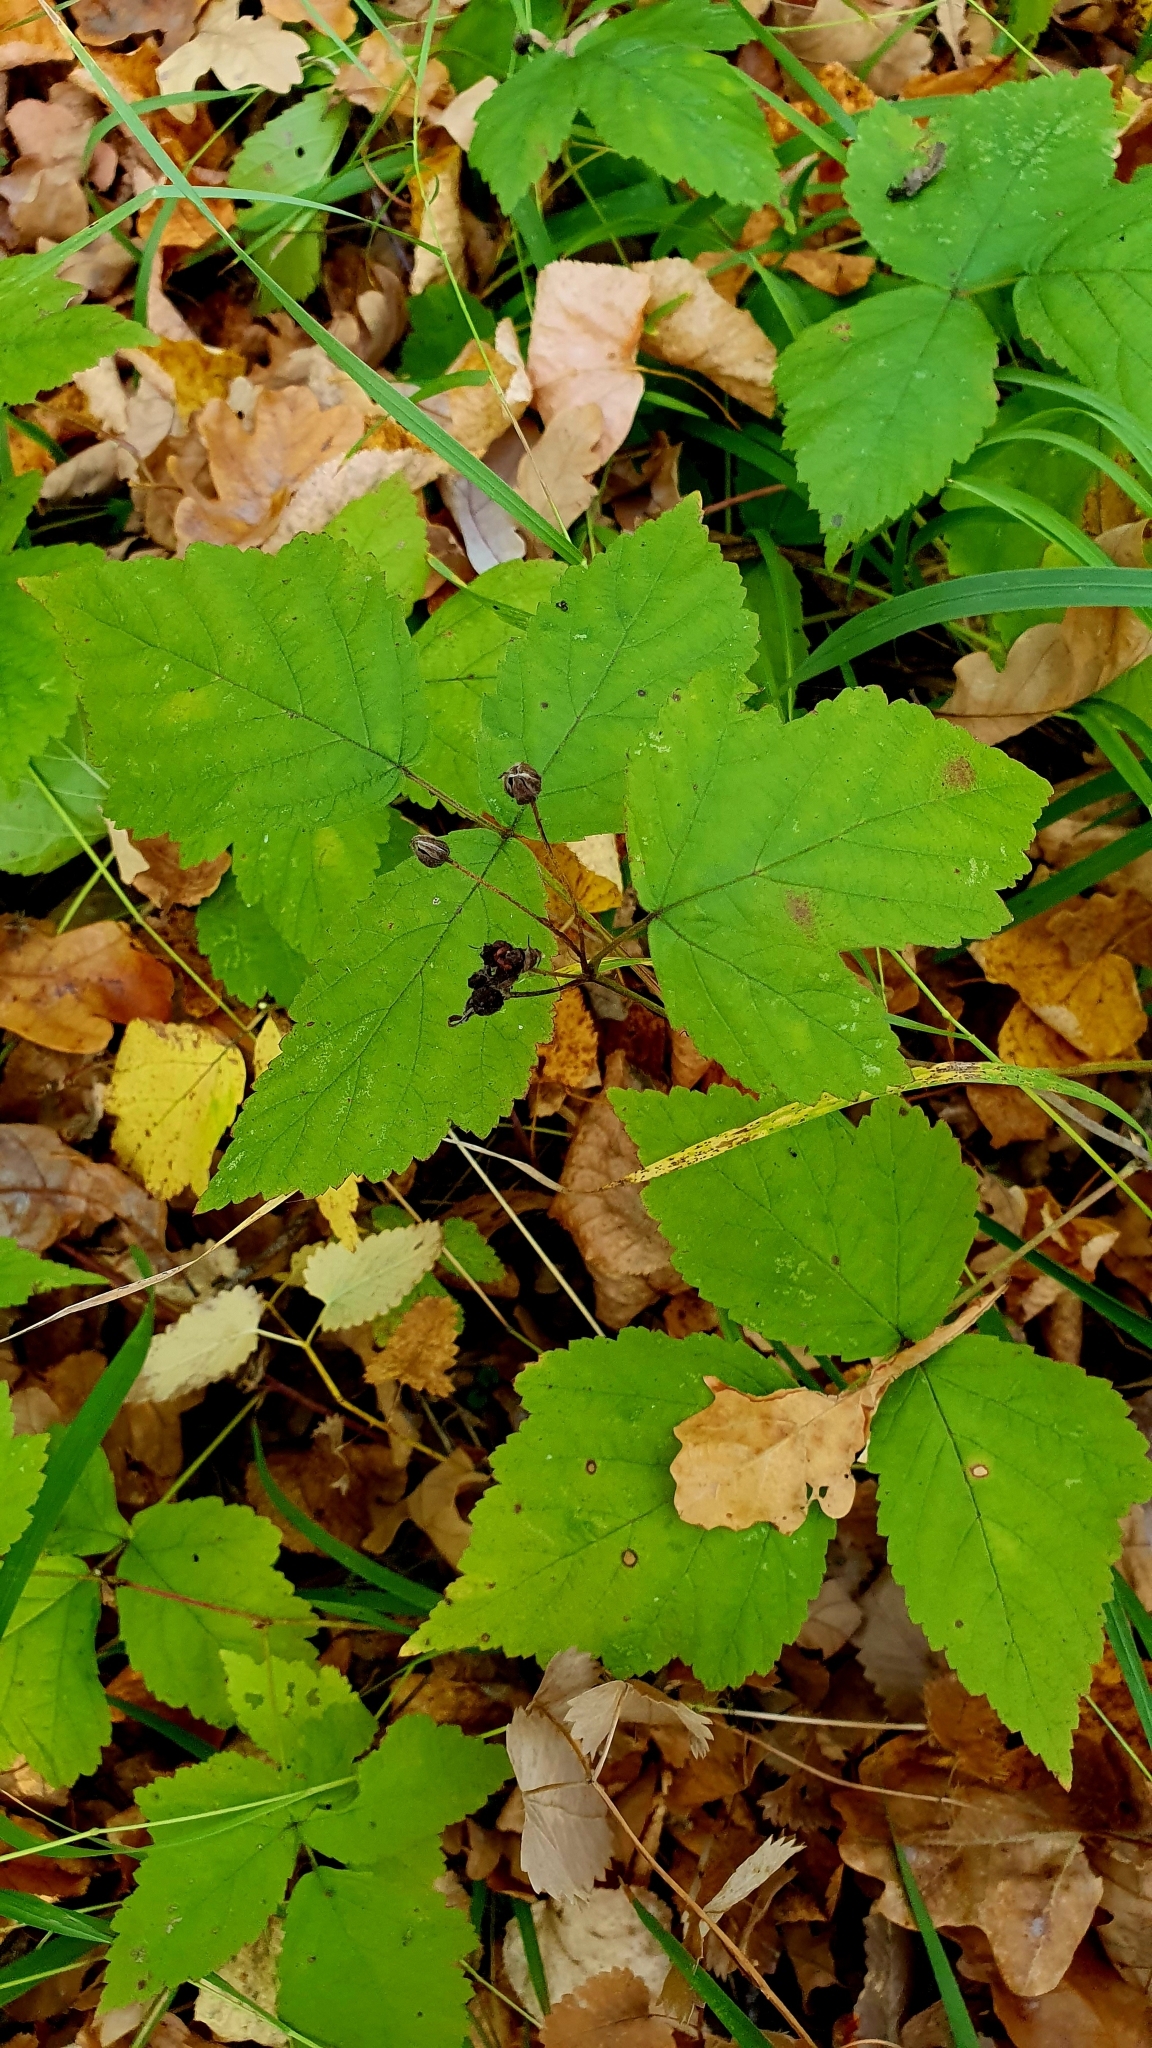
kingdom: Plantae
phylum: Tracheophyta
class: Magnoliopsida
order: Rosales
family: Rosaceae
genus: Rubus
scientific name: Rubus caesius
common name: Dewberry
